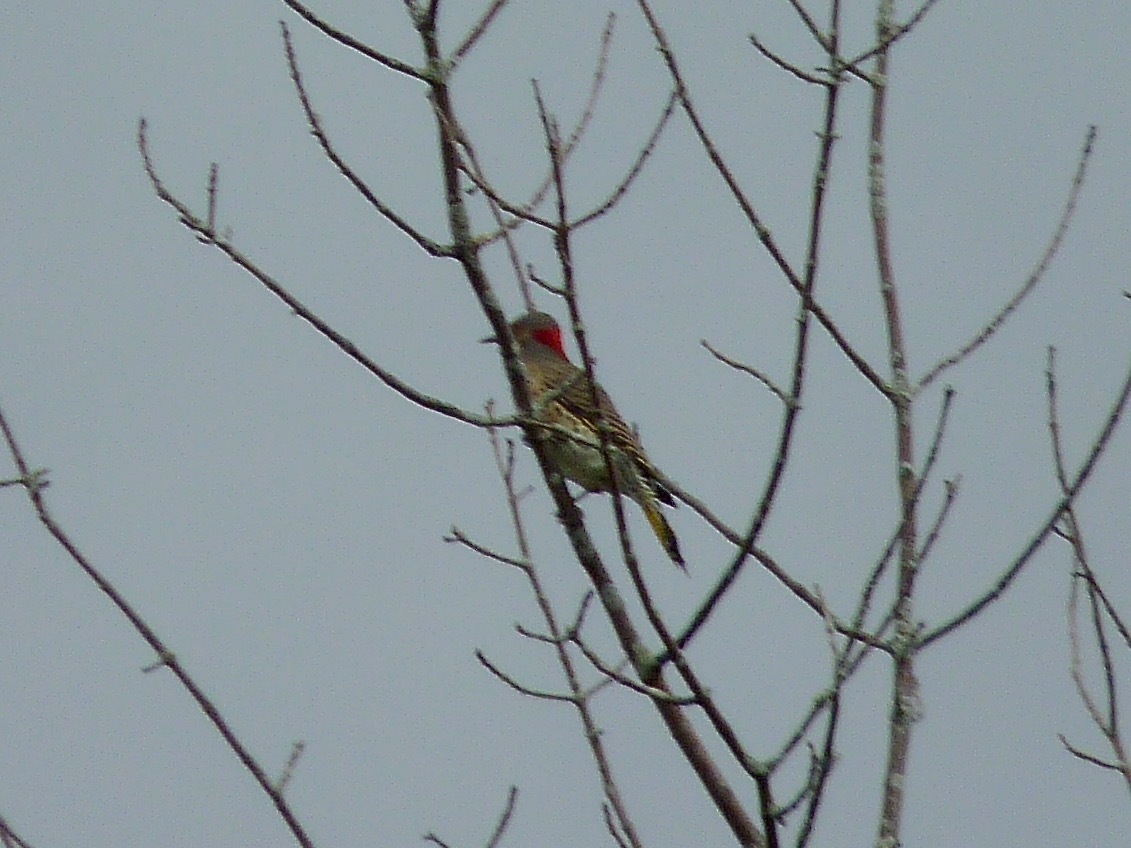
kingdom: Animalia
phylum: Chordata
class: Aves
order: Piciformes
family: Picidae
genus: Colaptes
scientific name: Colaptes auratus
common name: Northern flicker
